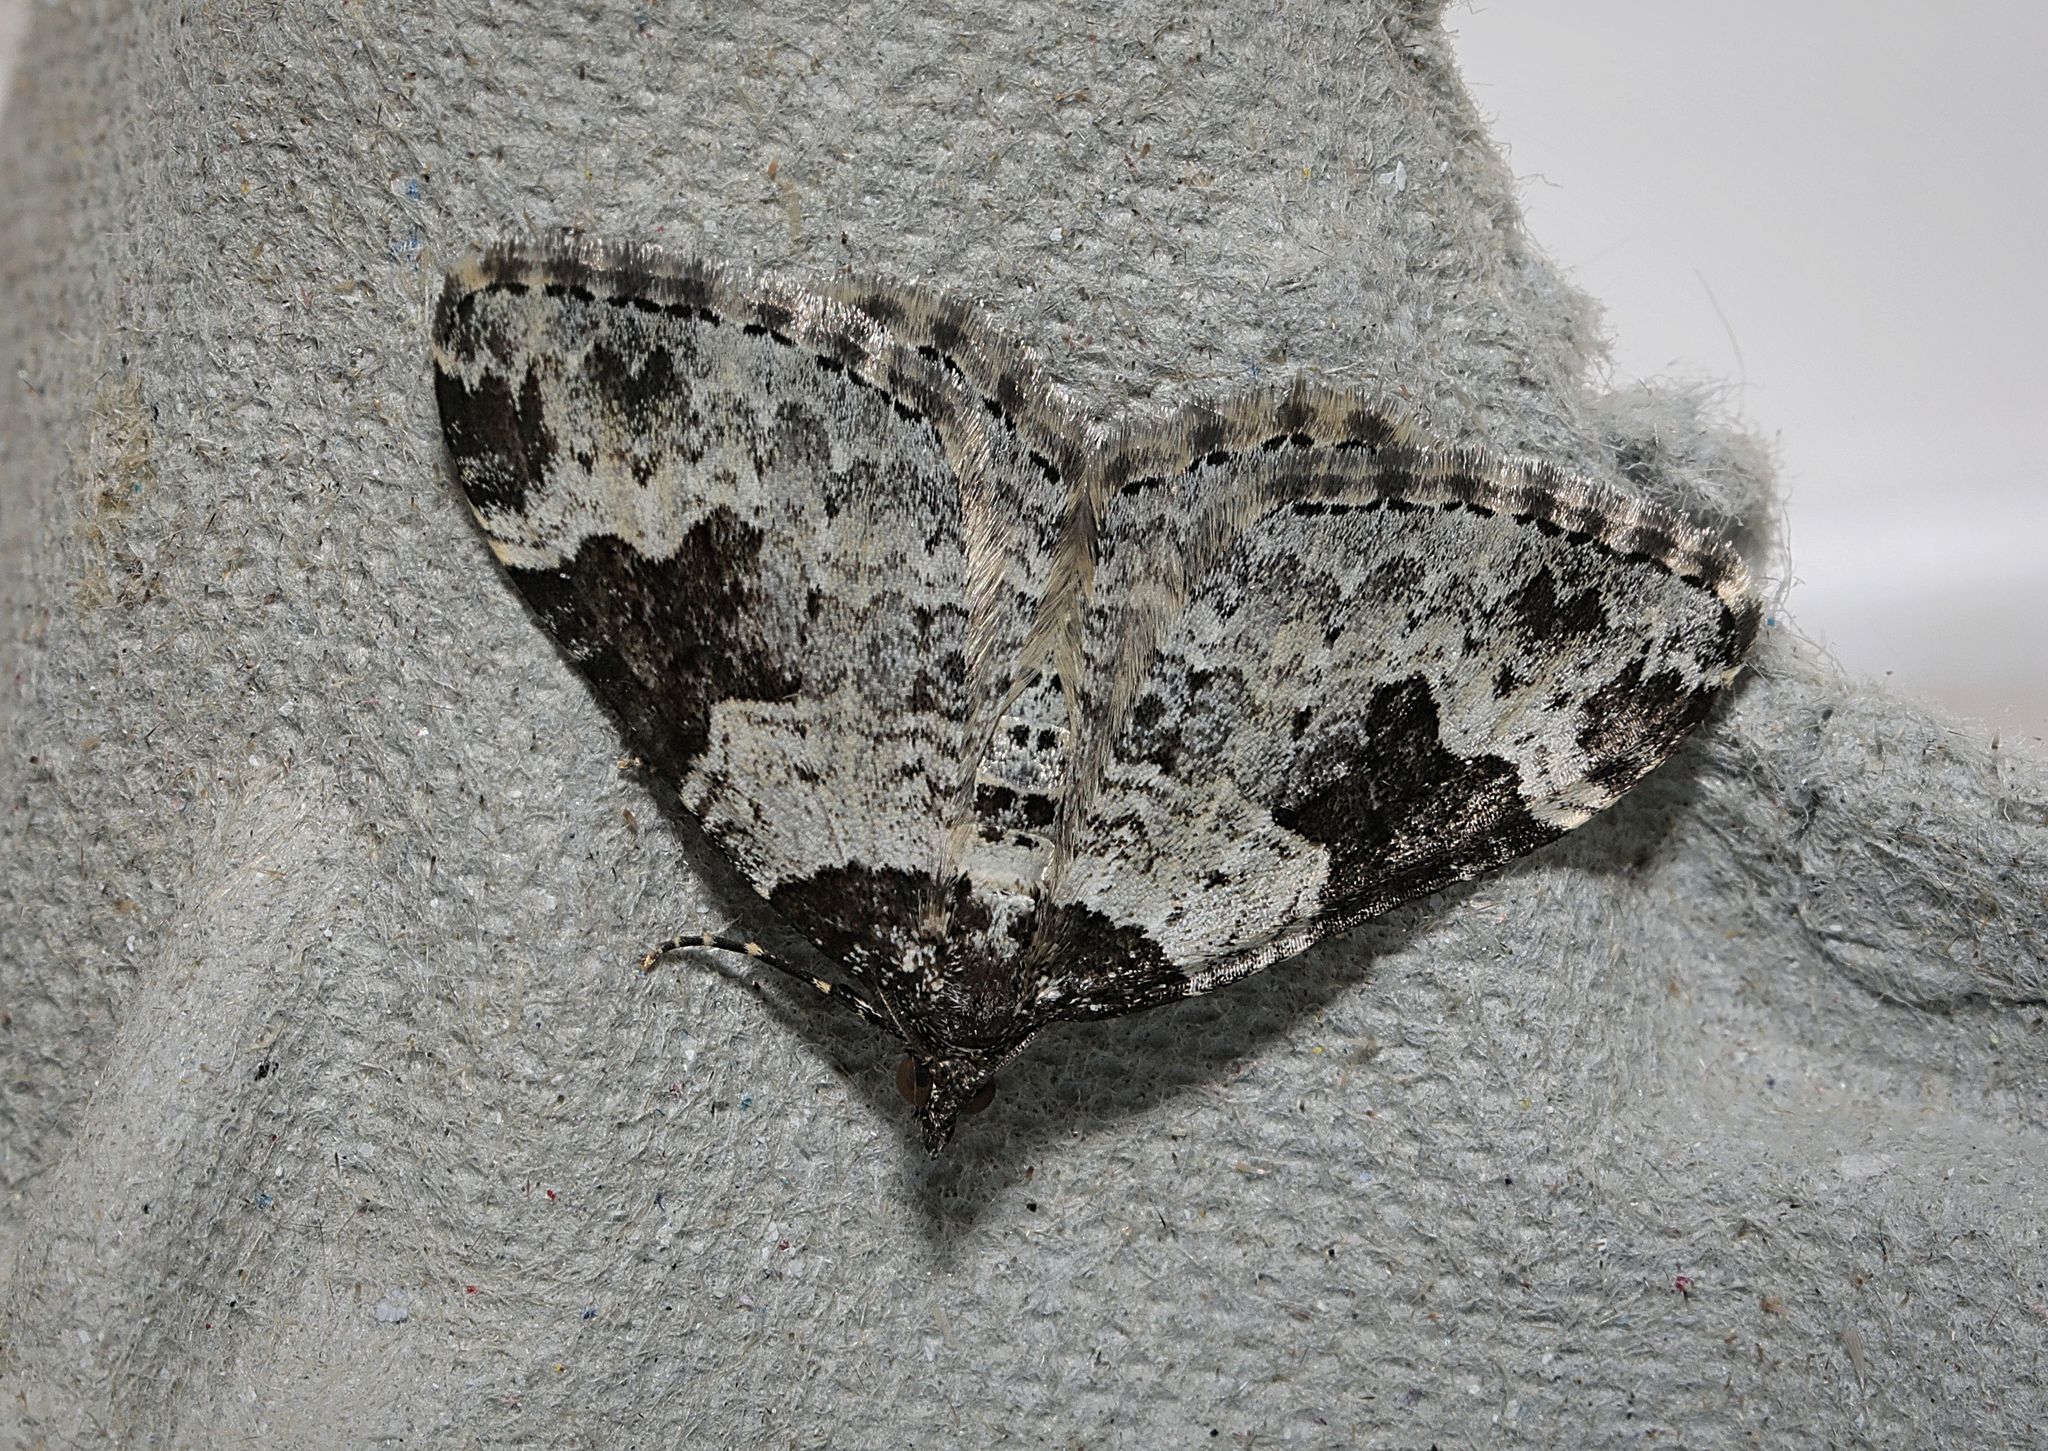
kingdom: Animalia
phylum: Arthropoda
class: Insecta
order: Lepidoptera
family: Geometridae
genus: Xanthorhoe
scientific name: Xanthorhoe fluctuata
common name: Garden carpet
